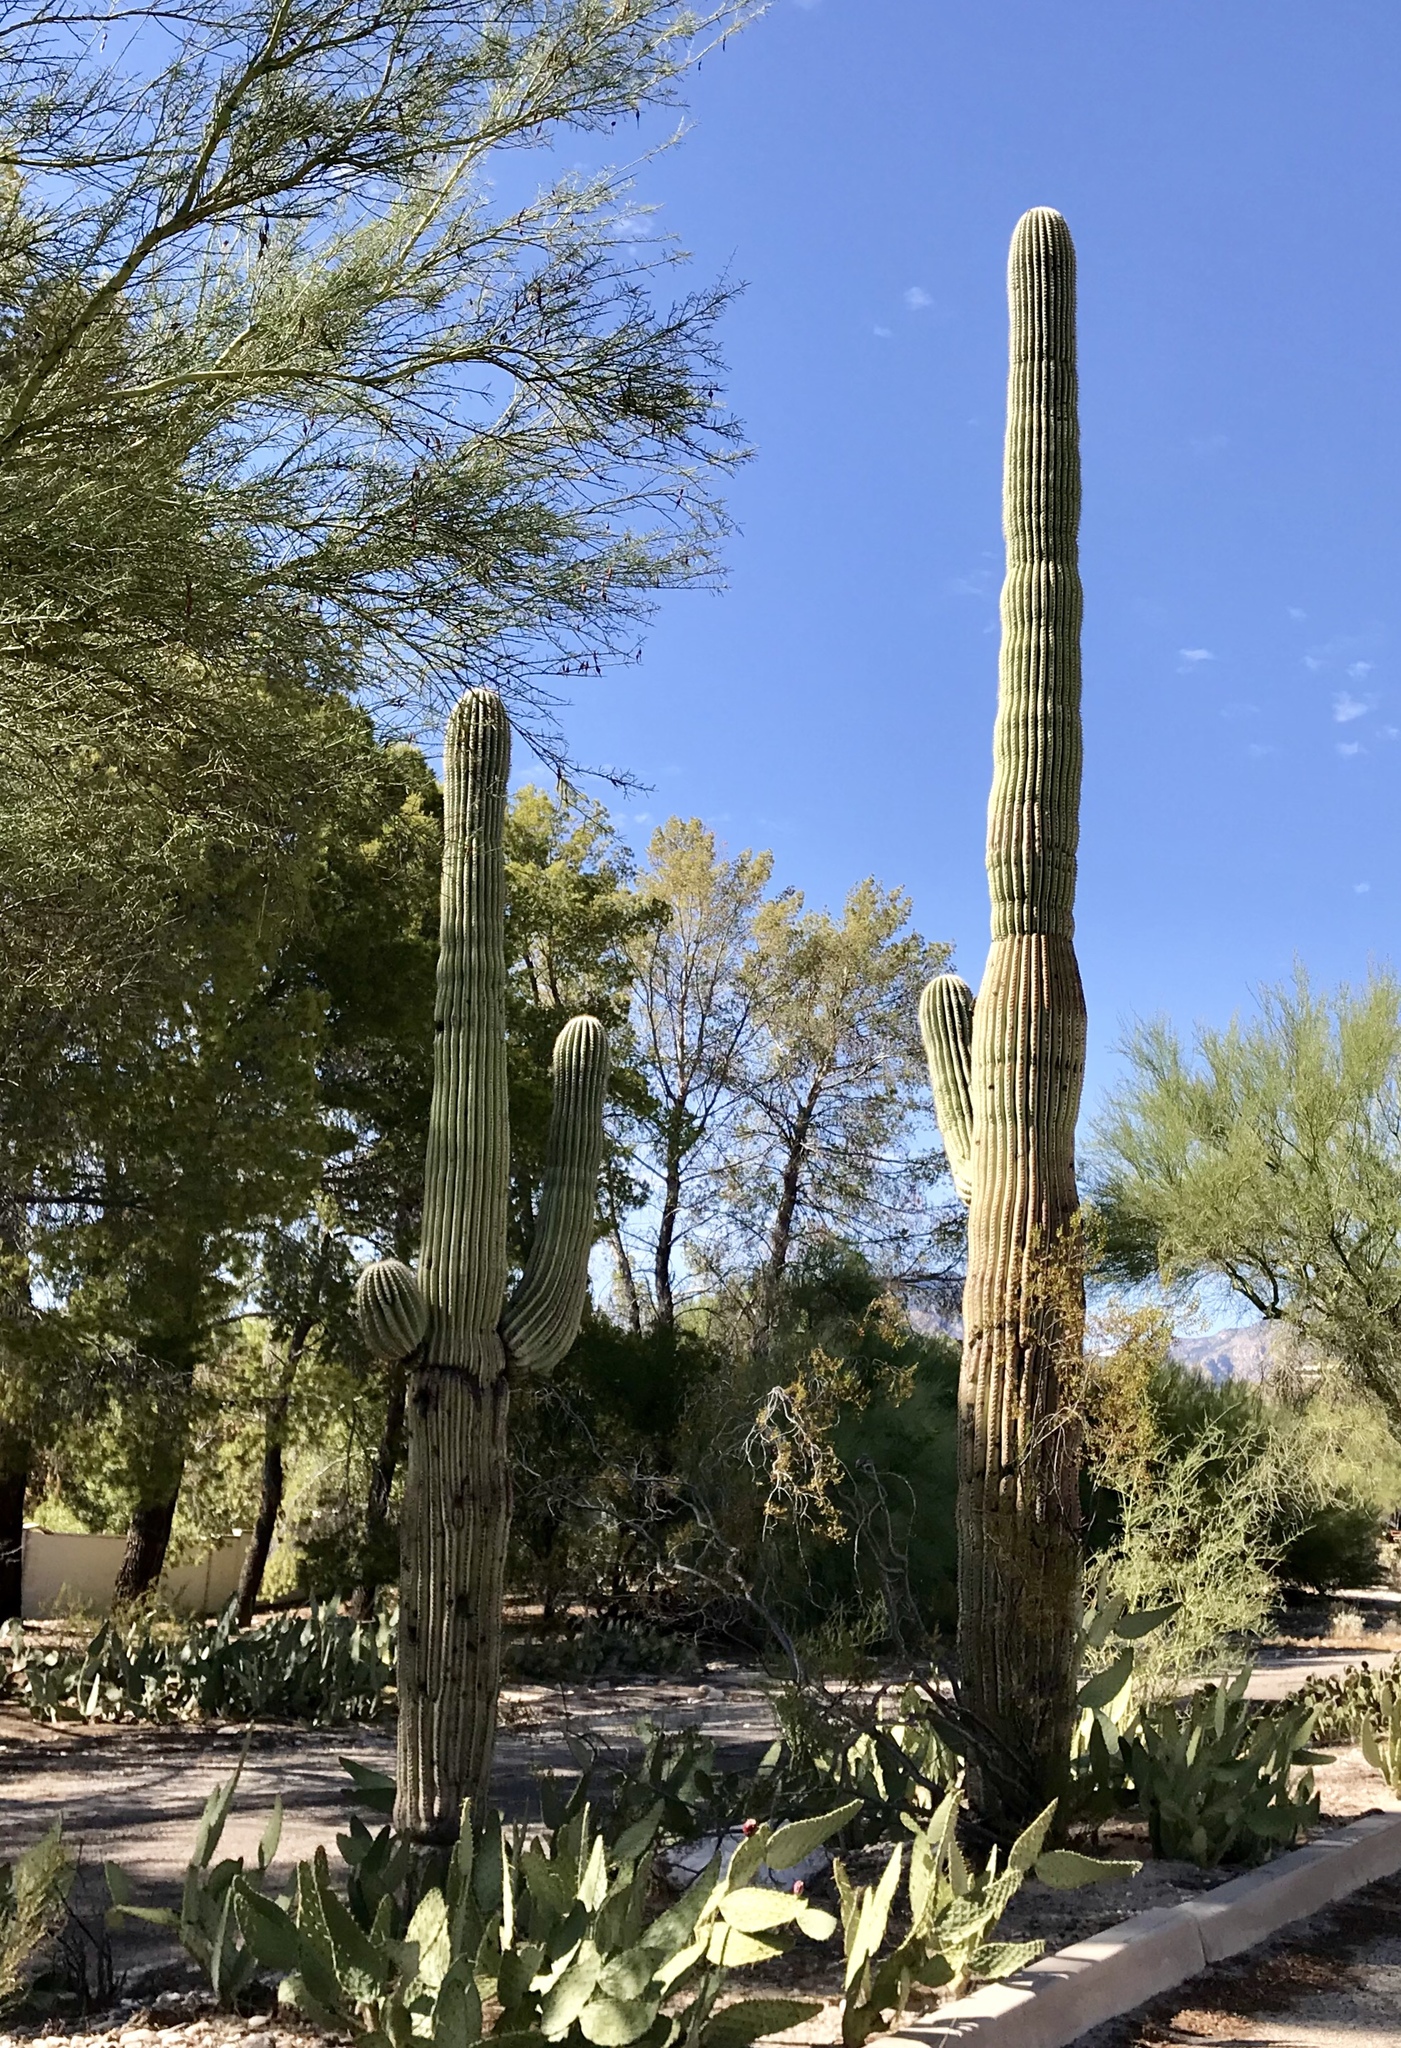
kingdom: Plantae
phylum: Tracheophyta
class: Magnoliopsida
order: Caryophyllales
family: Cactaceae
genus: Carnegiea
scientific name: Carnegiea gigantea
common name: Saguaro
